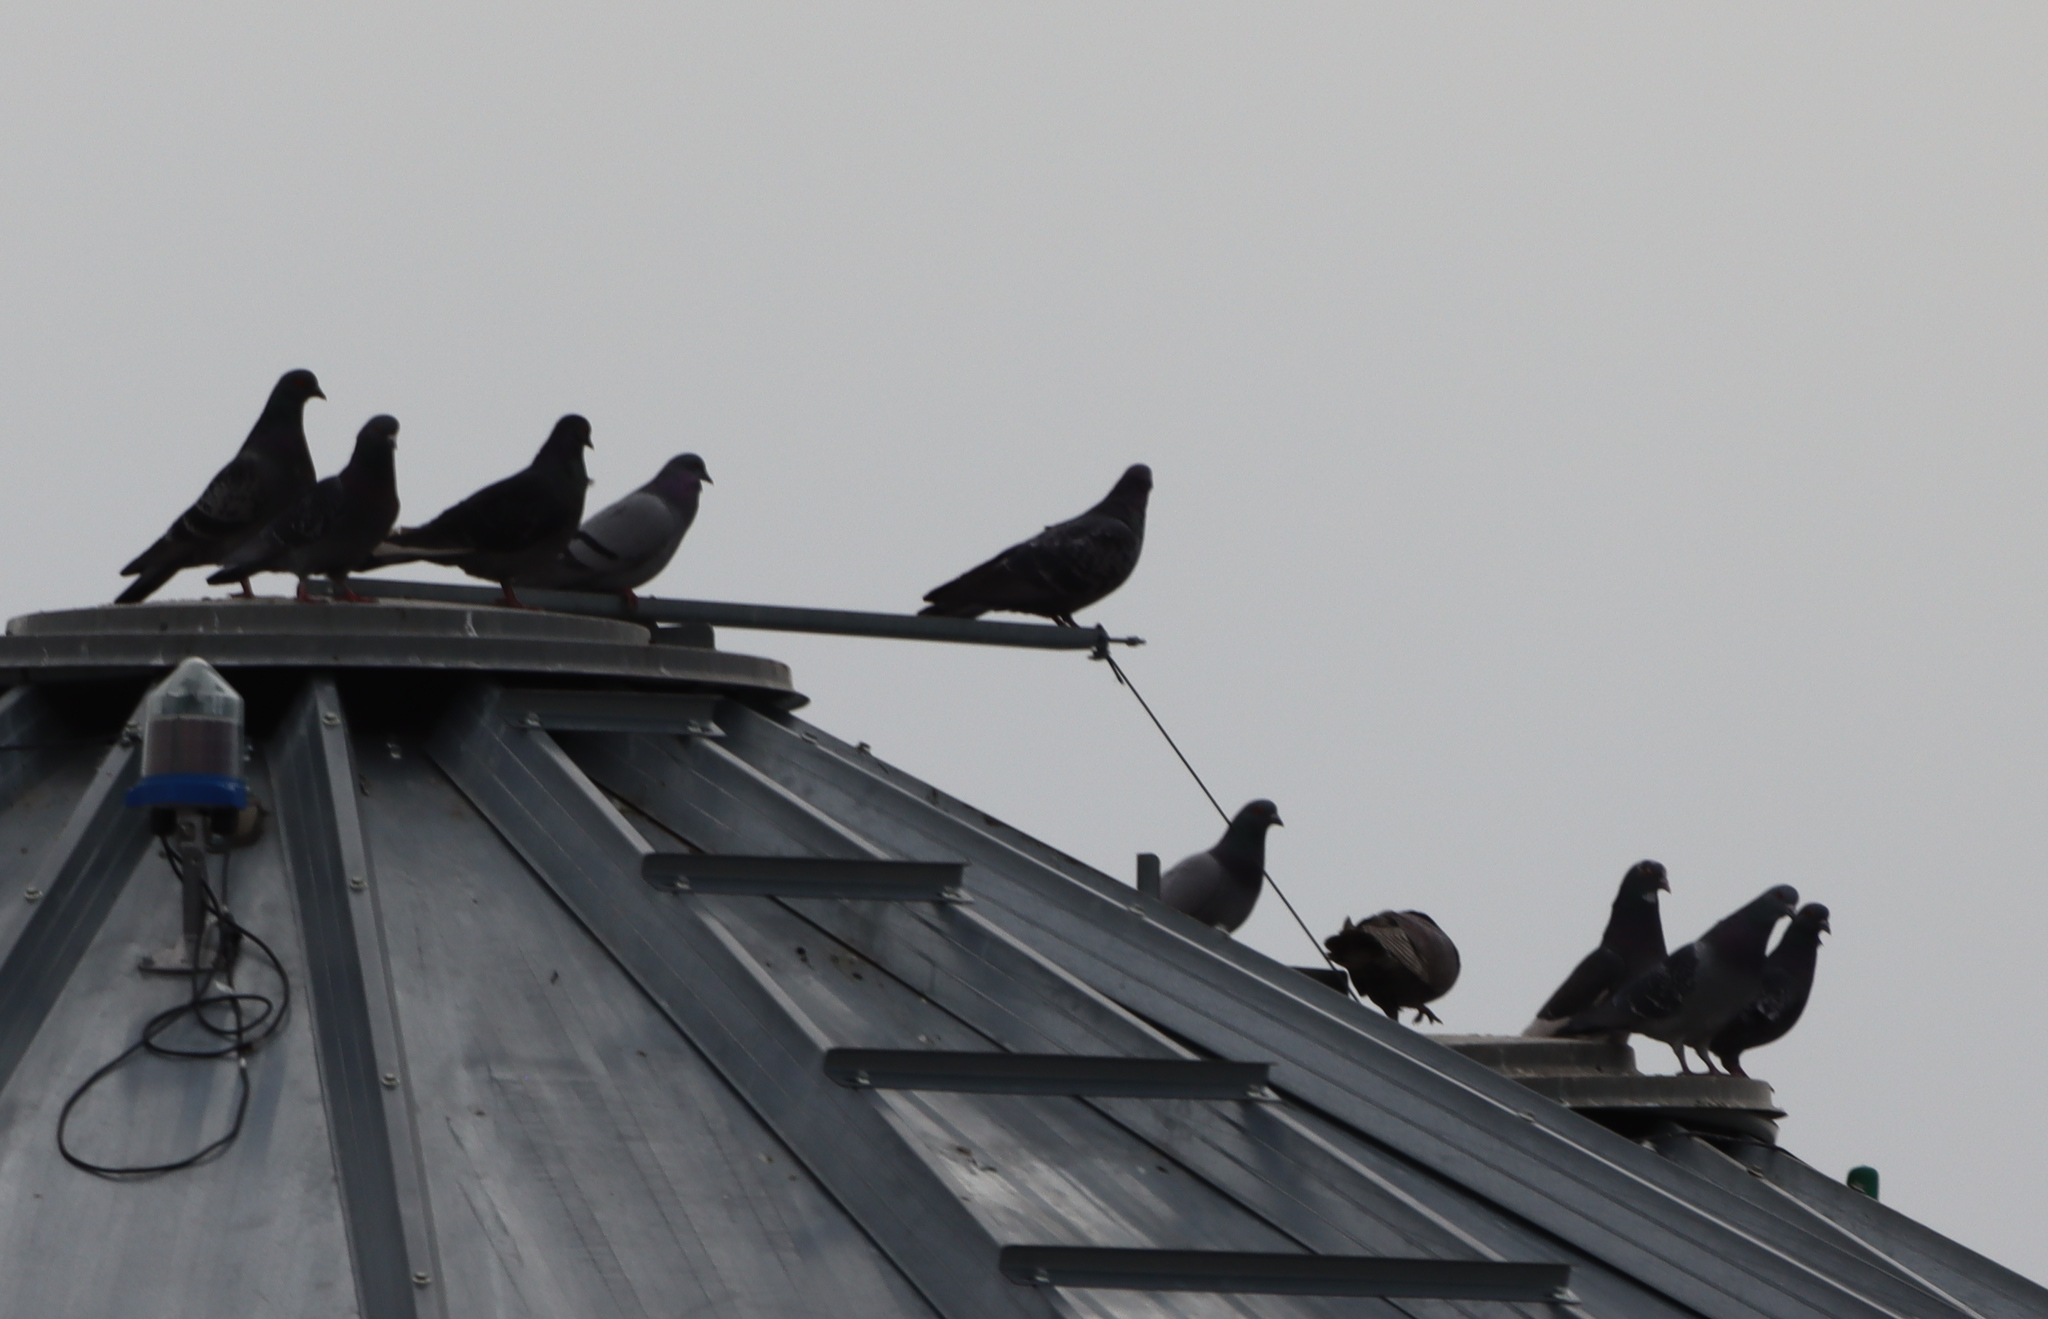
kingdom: Animalia
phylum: Chordata
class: Aves
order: Columbiformes
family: Columbidae
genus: Columba
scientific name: Columba livia
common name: Rock pigeon
